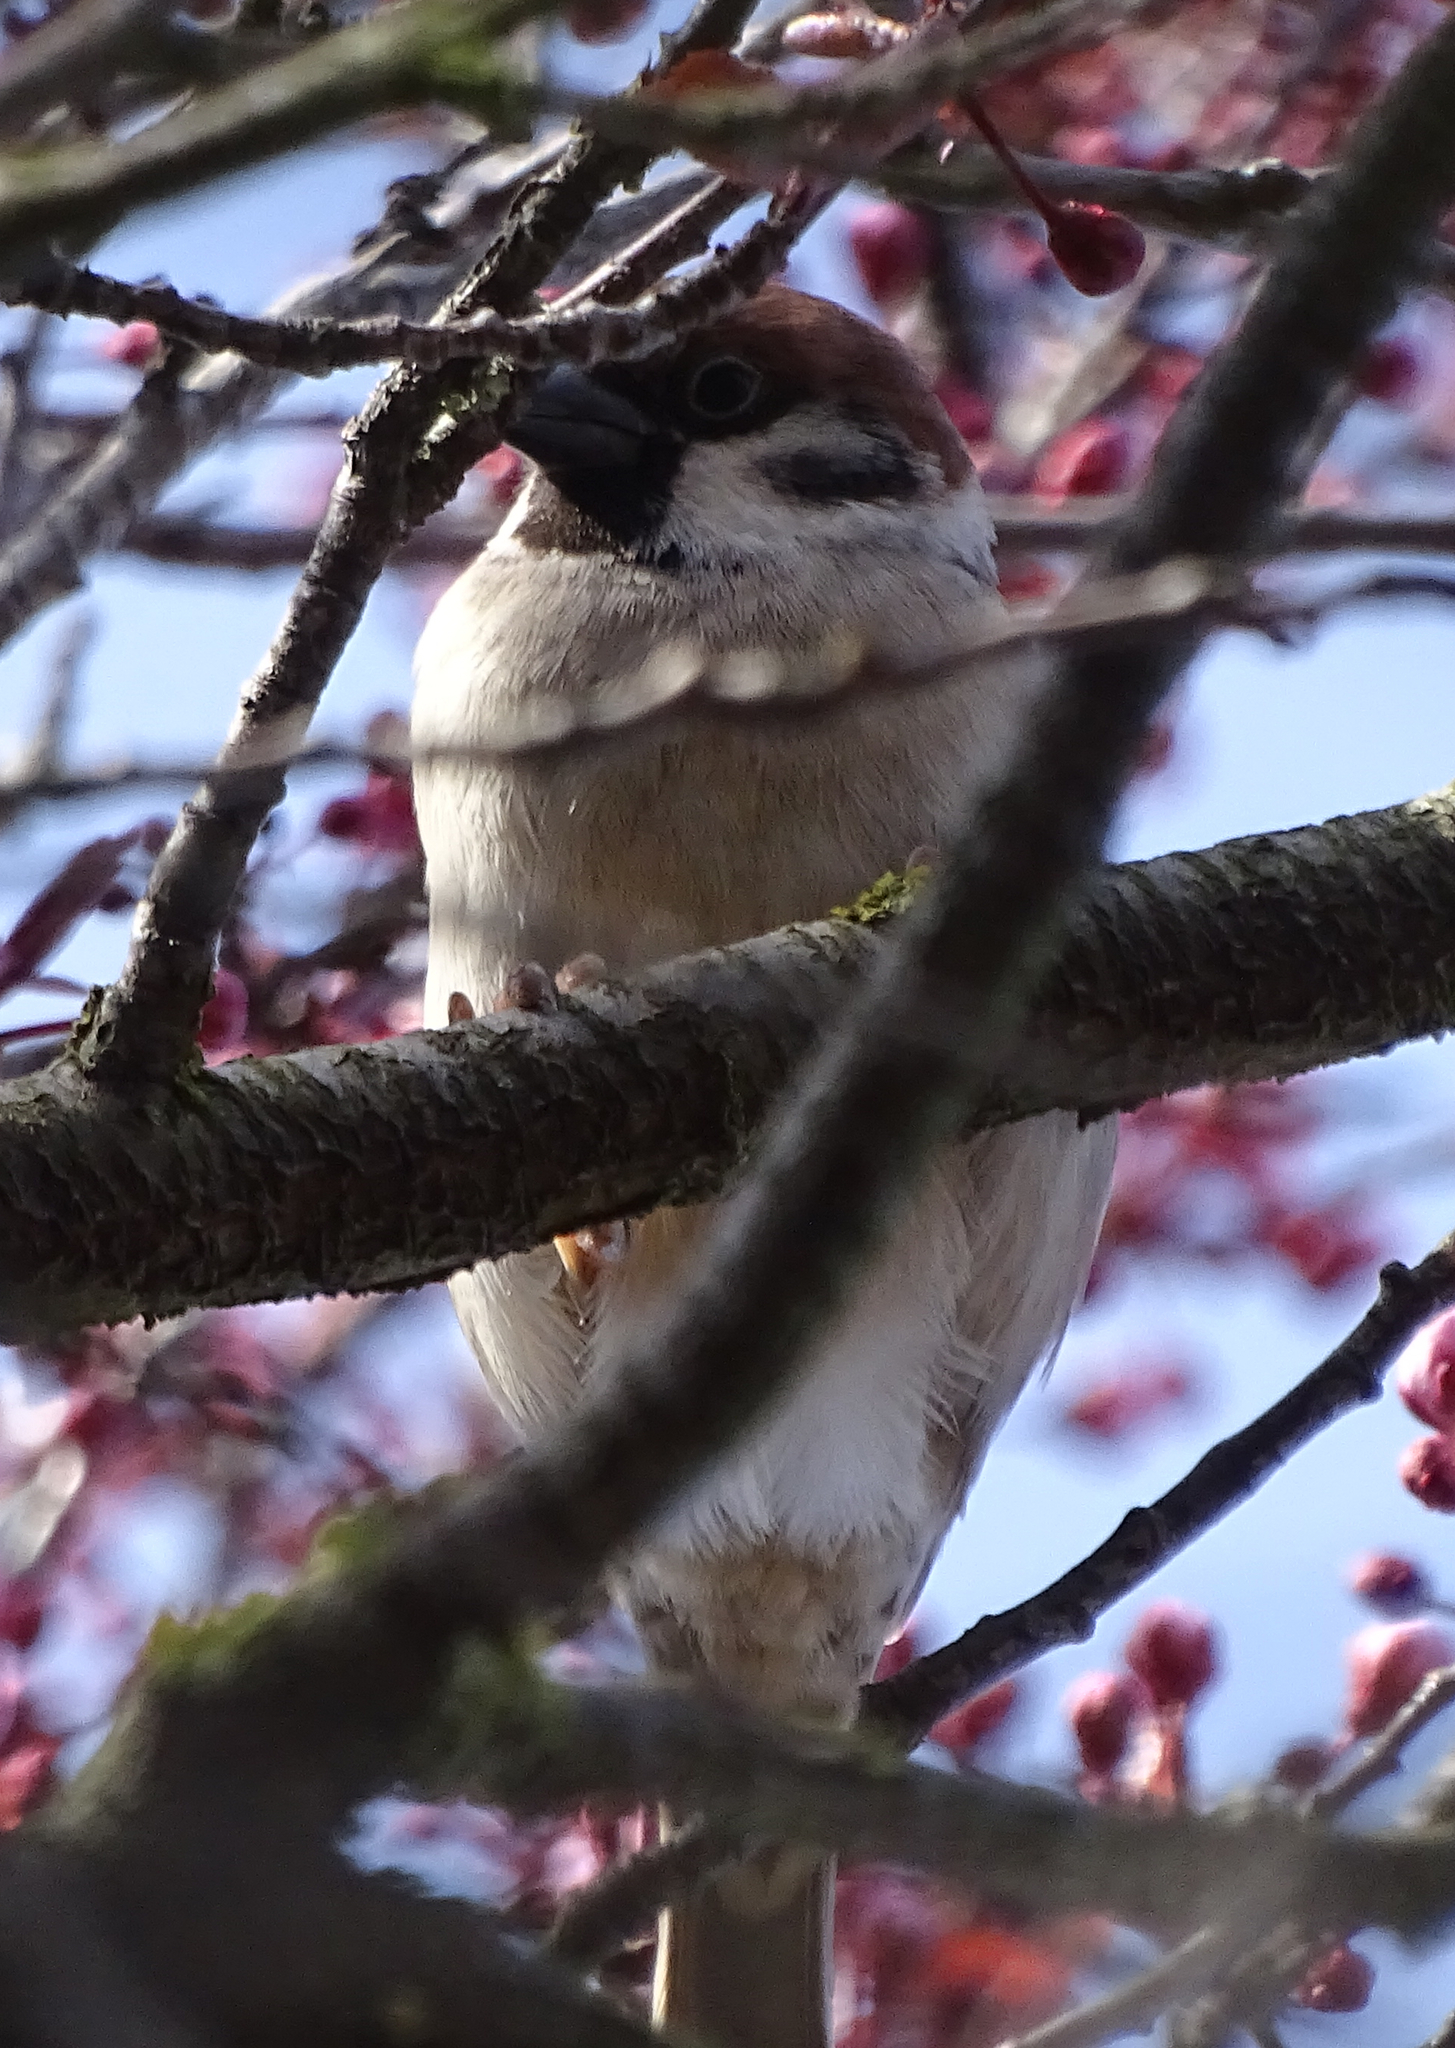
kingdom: Animalia
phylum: Chordata
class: Aves
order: Passeriformes
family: Passeridae
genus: Passer
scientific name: Passer montanus
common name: Eurasian tree sparrow
